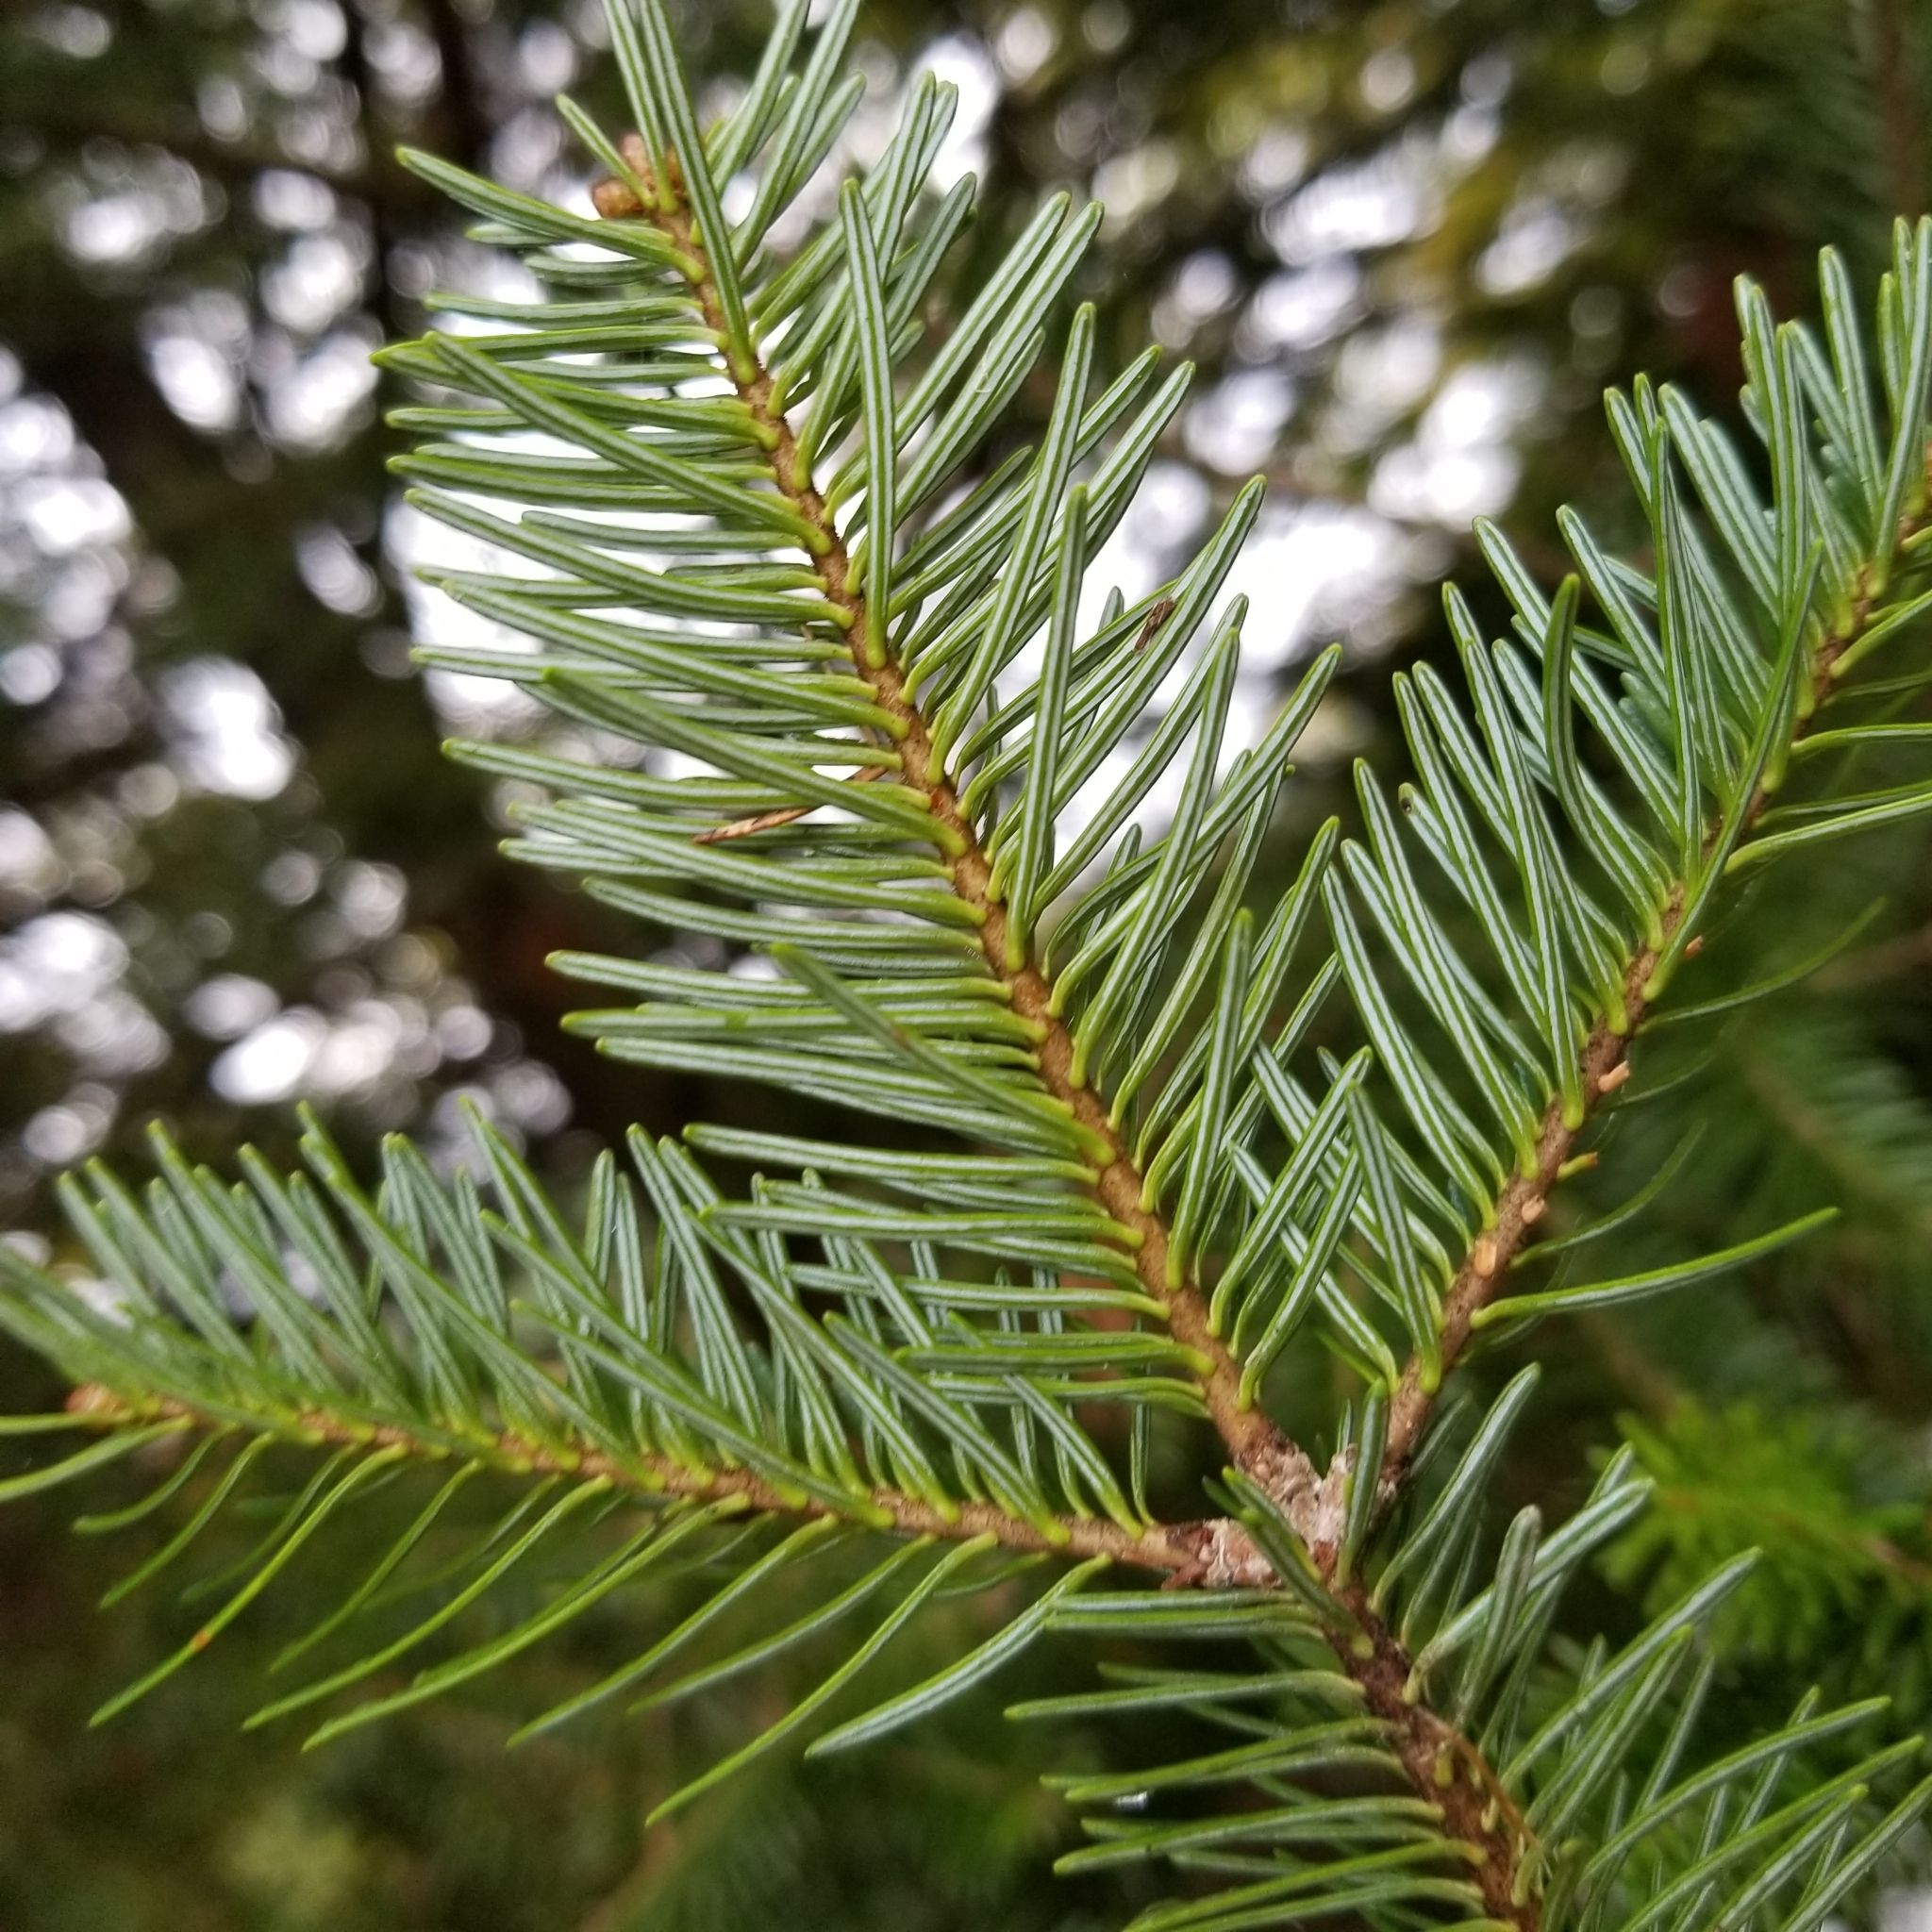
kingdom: Plantae
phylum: Tracheophyta
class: Pinopsida
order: Pinales
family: Pinaceae
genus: Abies
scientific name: Abies balsamea
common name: Balsam fir
